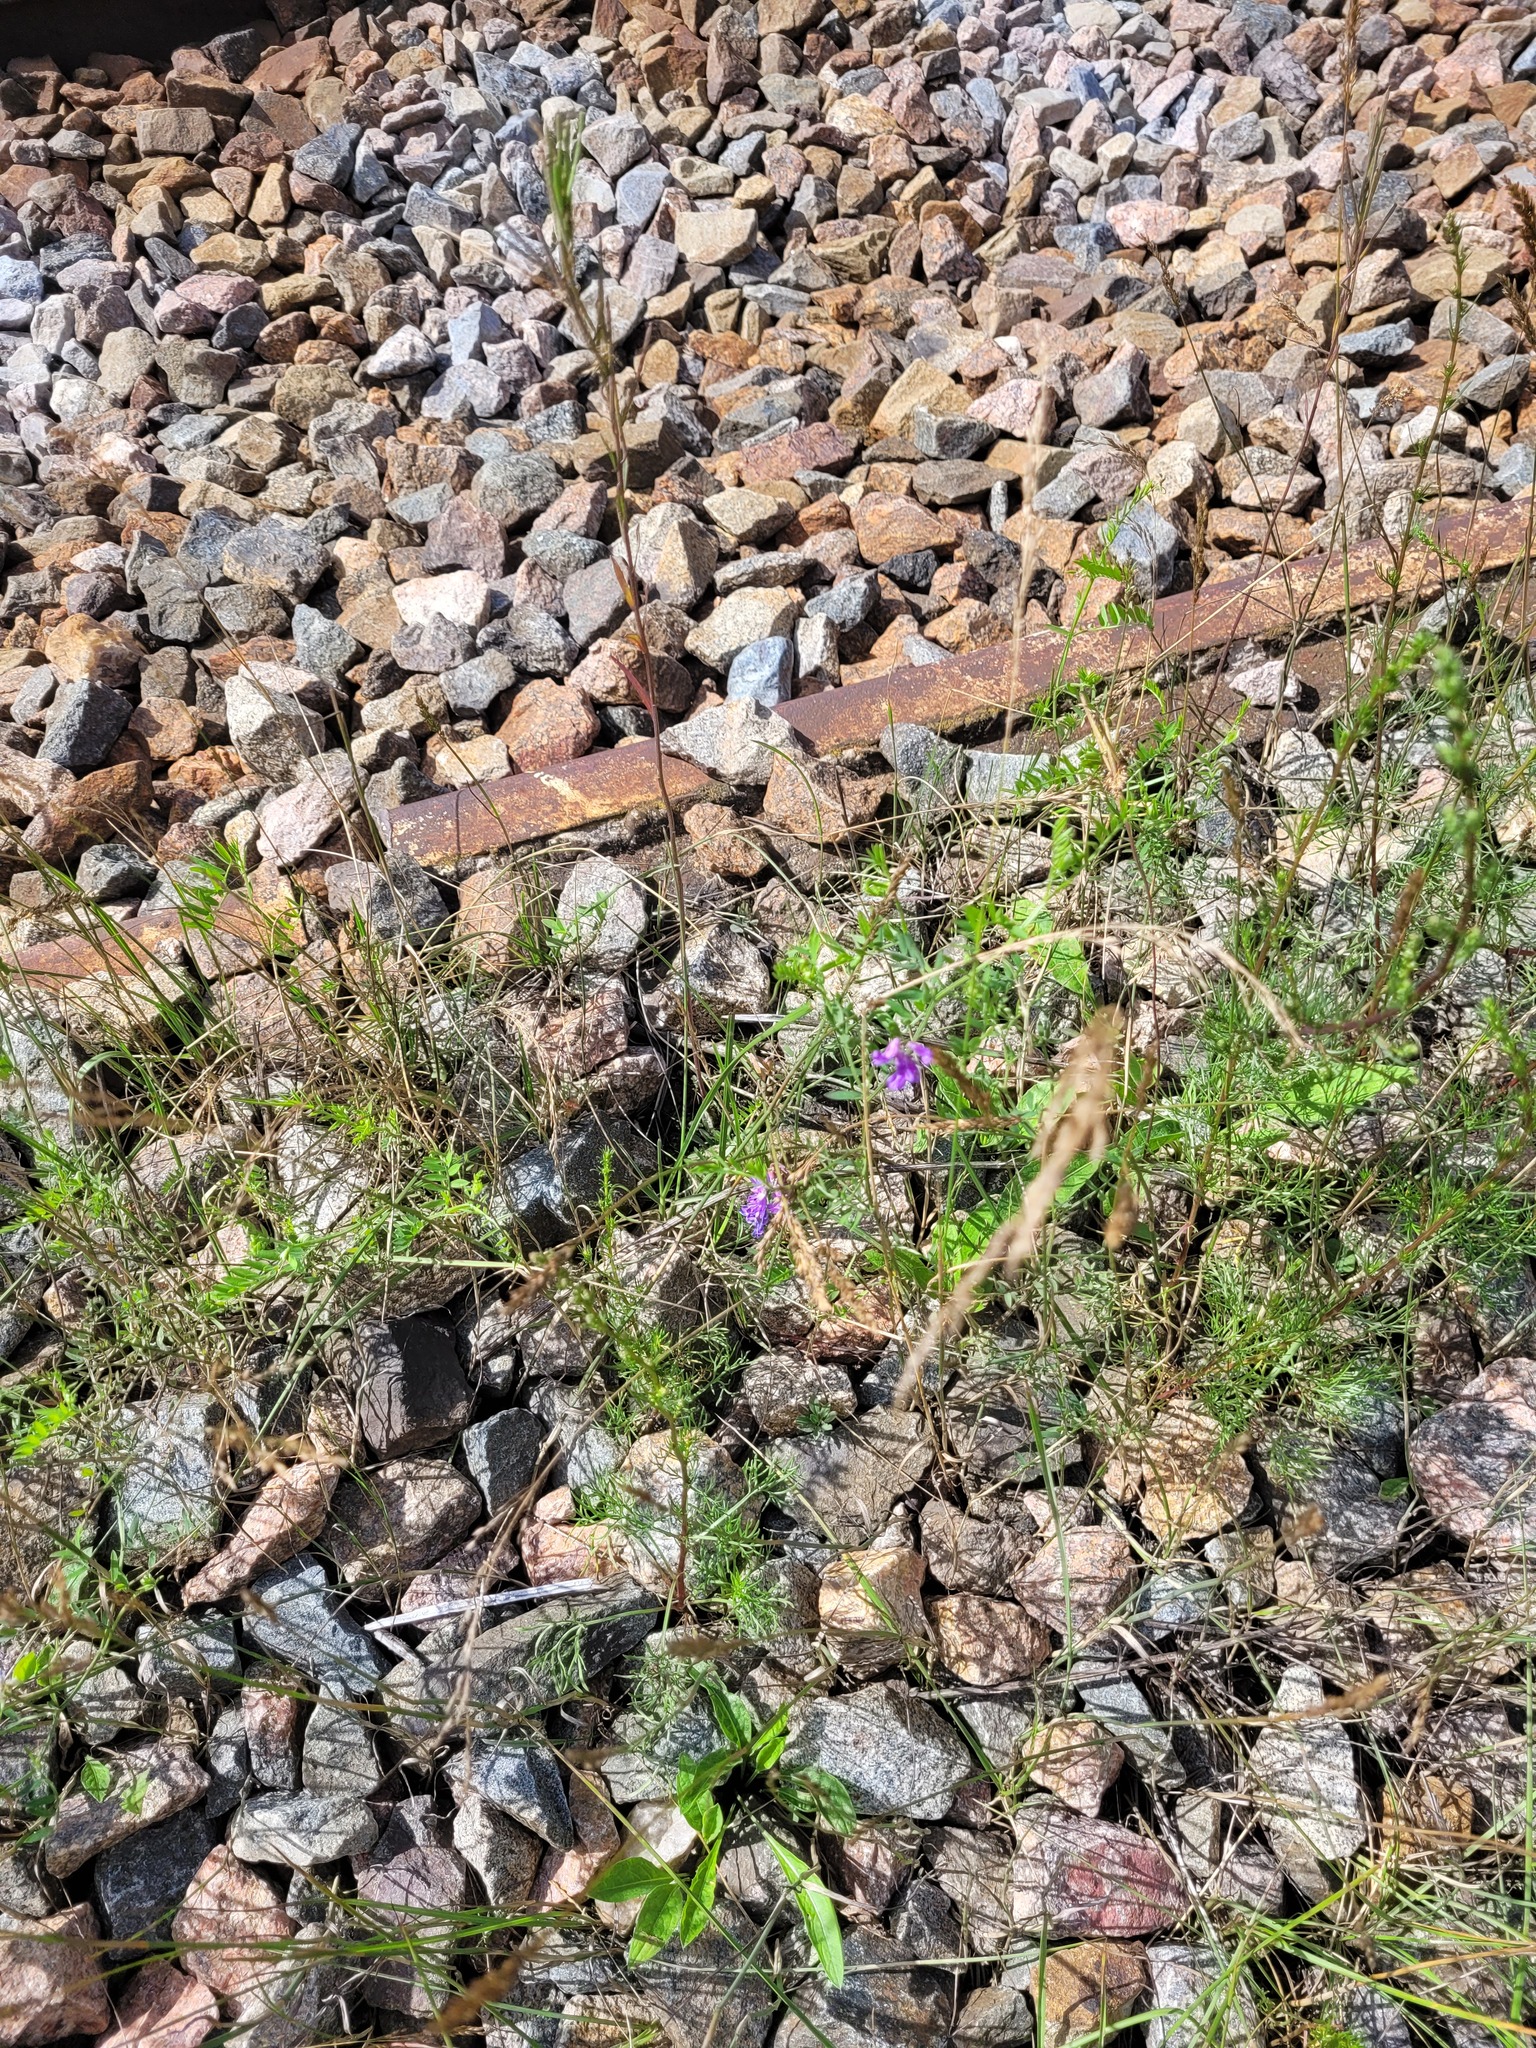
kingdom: Plantae
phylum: Tracheophyta
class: Magnoliopsida
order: Fabales
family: Fabaceae
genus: Vicia
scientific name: Vicia cracca
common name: Bird vetch
